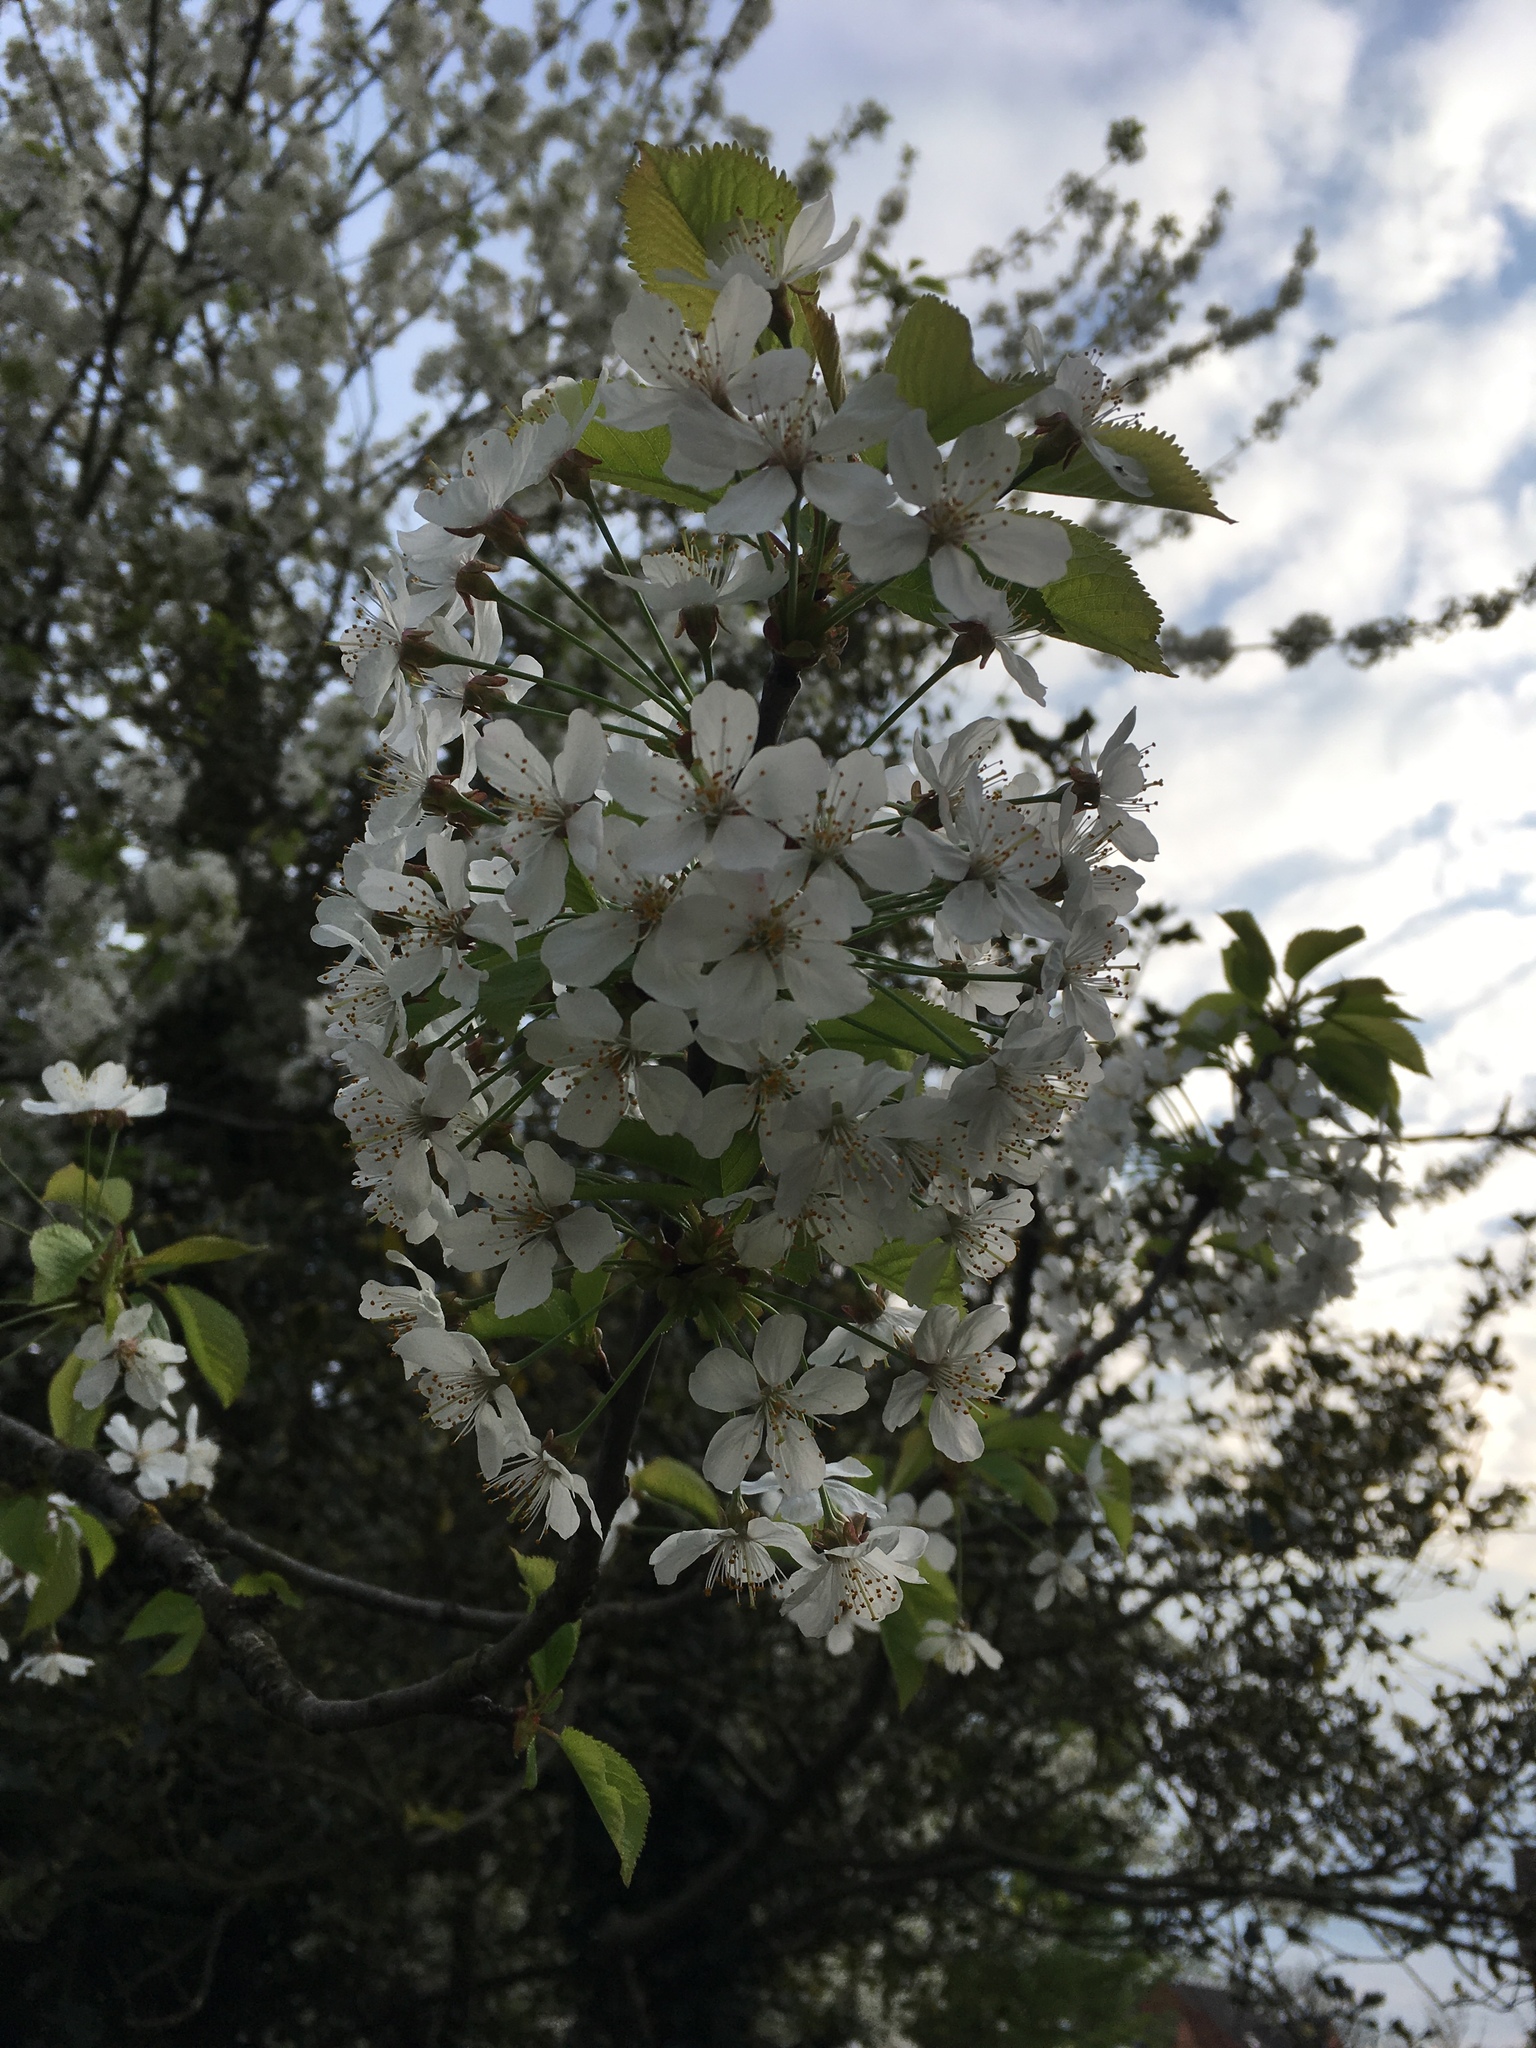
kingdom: Plantae
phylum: Tracheophyta
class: Magnoliopsida
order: Rosales
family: Rosaceae
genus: Prunus
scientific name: Prunus avium
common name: Sweet cherry
